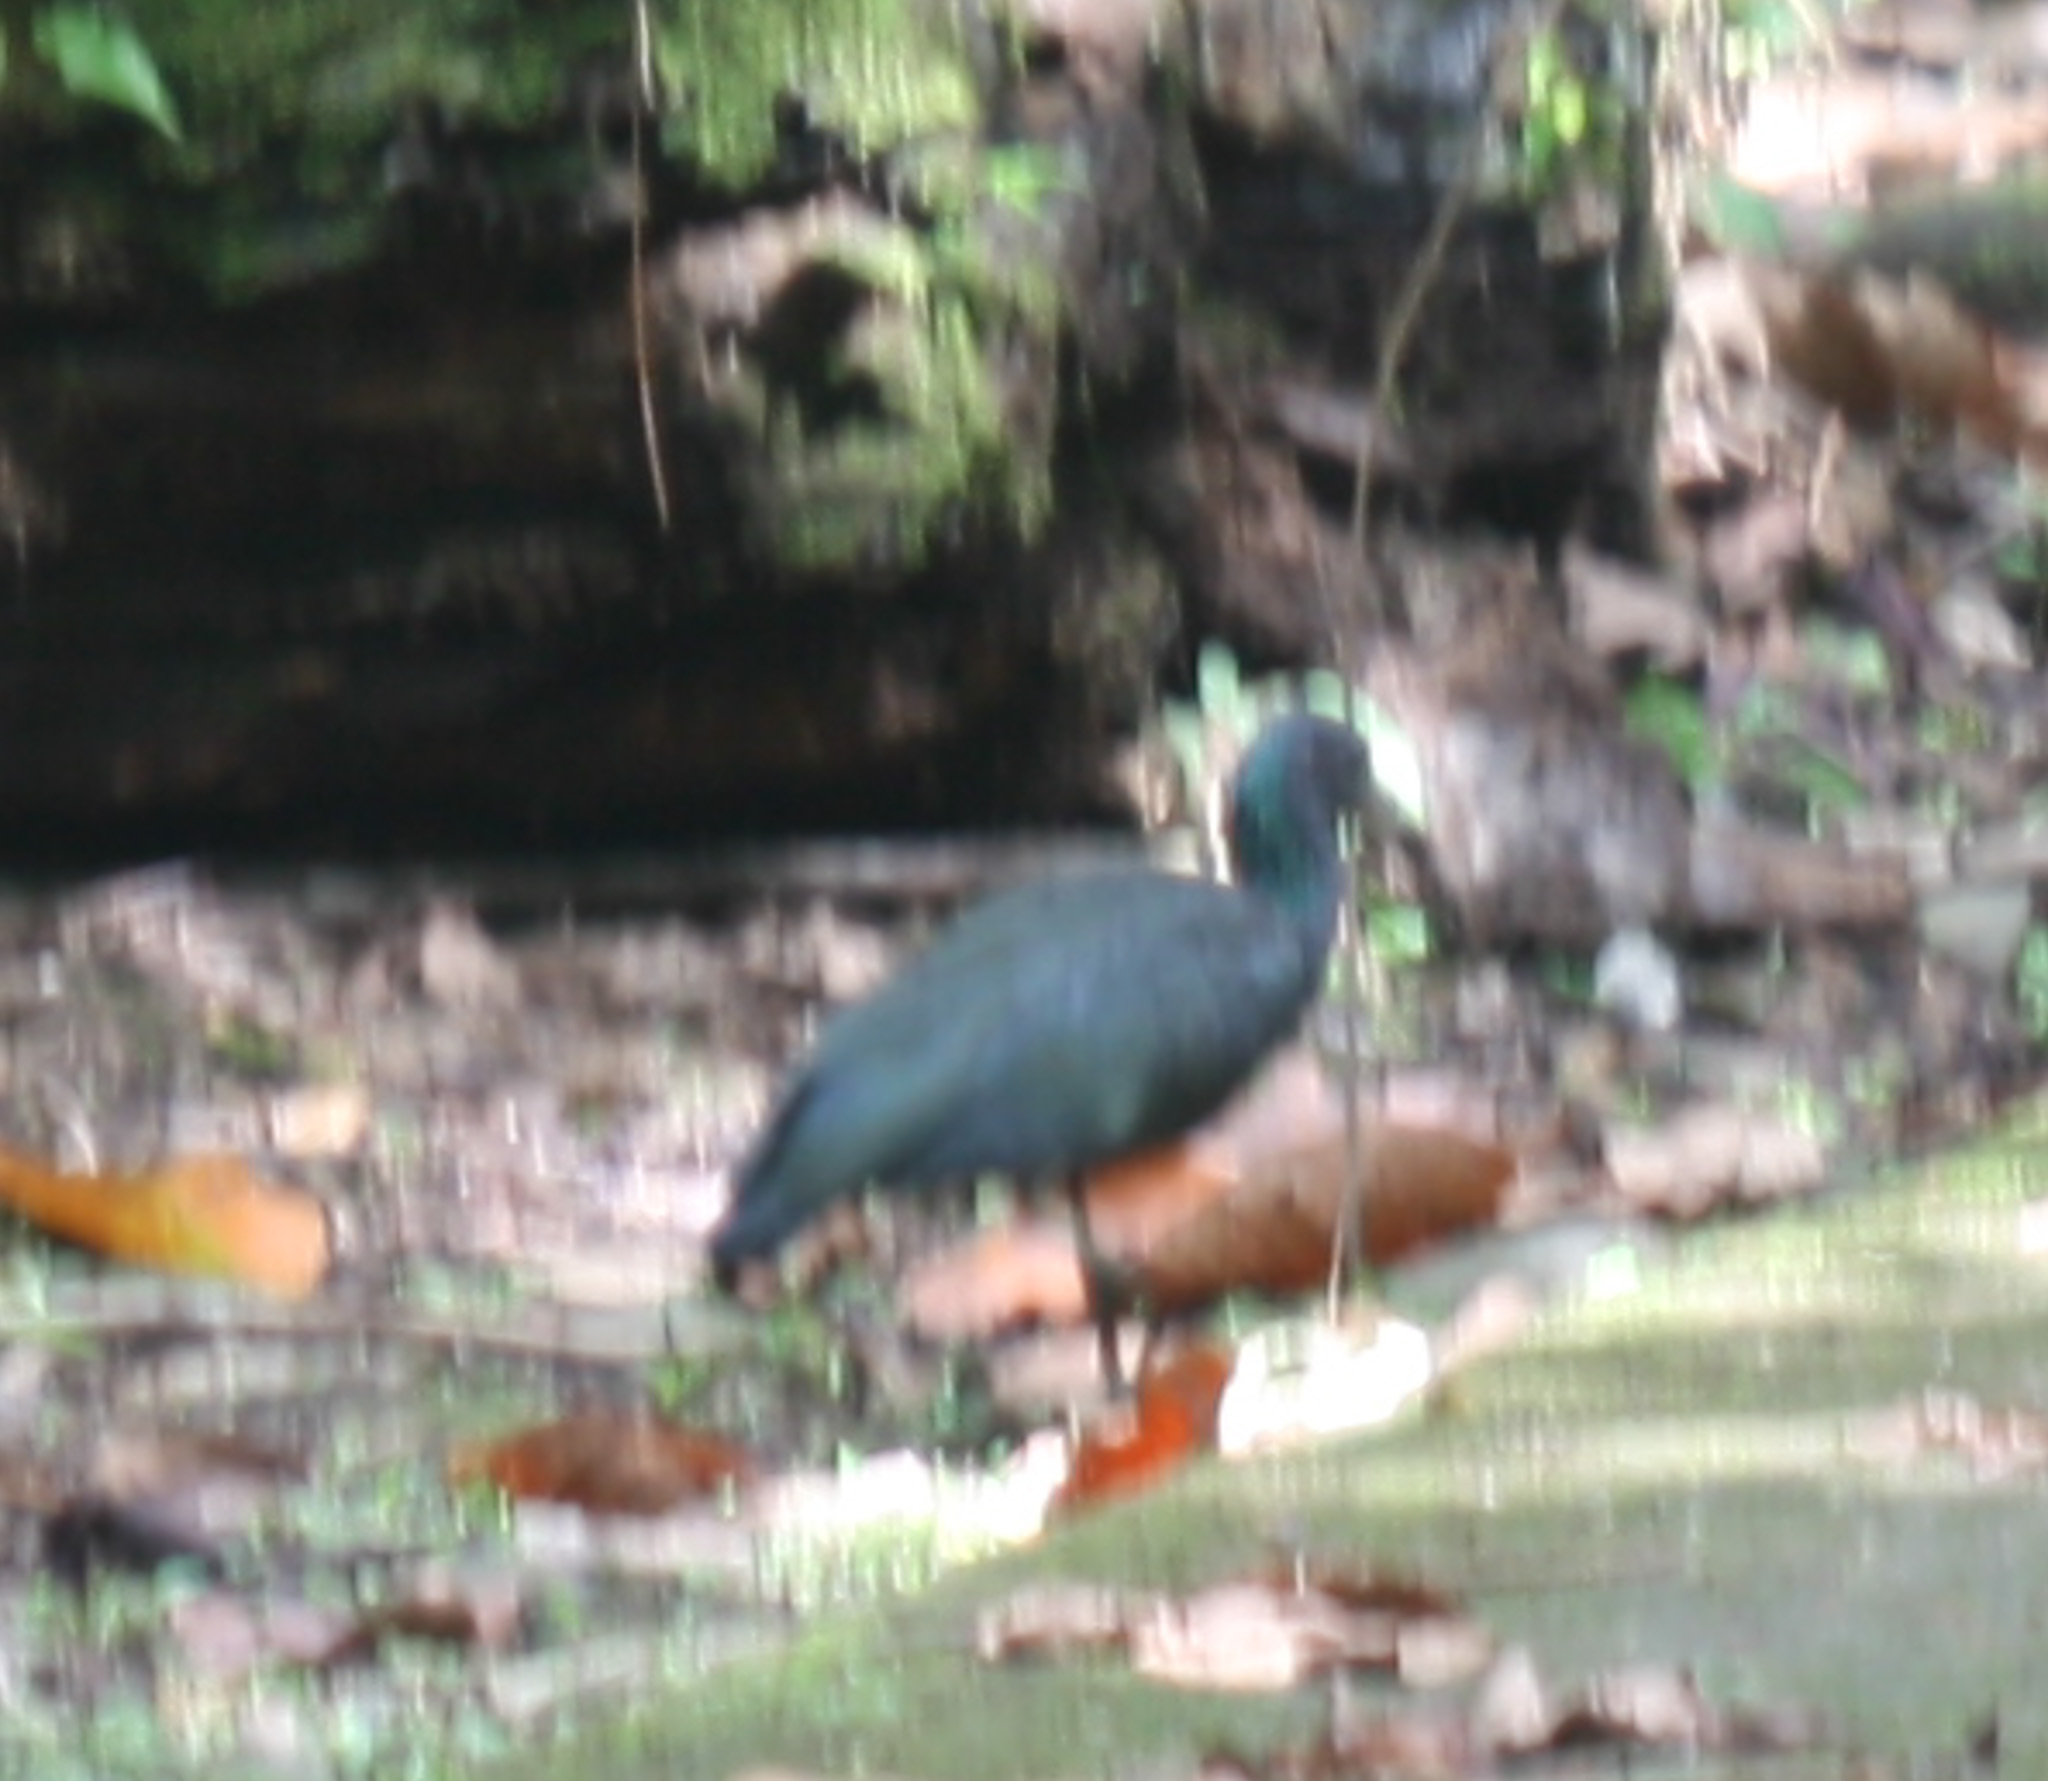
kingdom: Animalia
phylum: Chordata
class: Aves
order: Pelecaniformes
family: Threskiornithidae
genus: Mesembrinibis
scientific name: Mesembrinibis cayennensis
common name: Green ibis
